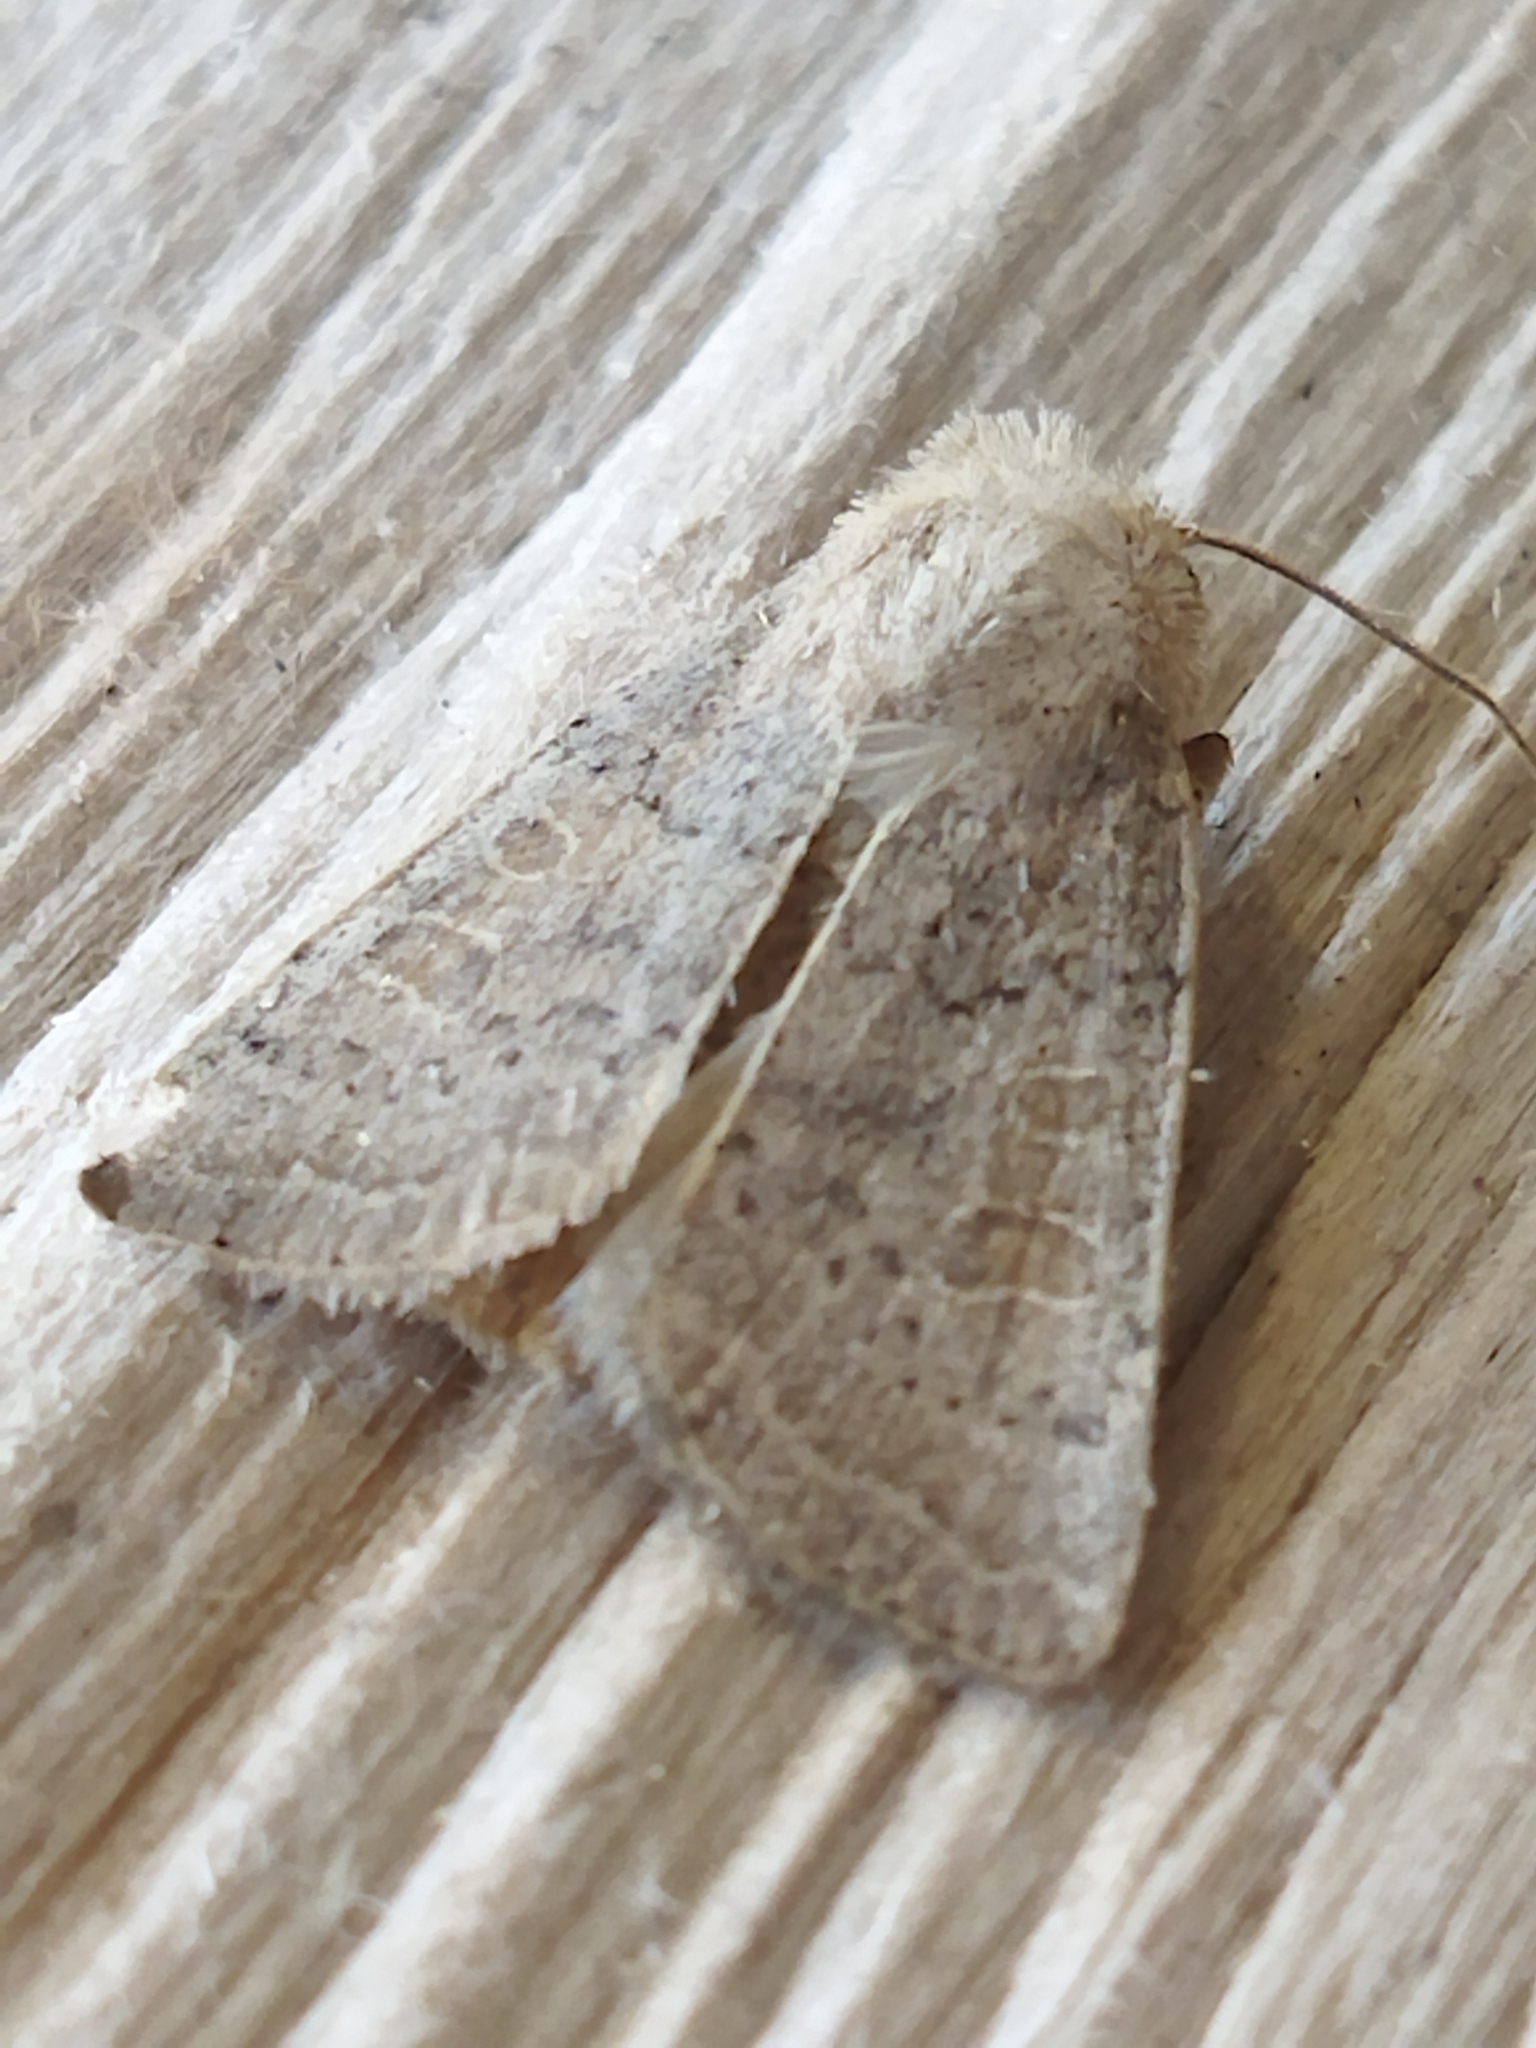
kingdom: Animalia
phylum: Arthropoda
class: Insecta
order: Lepidoptera
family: Noctuidae
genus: Hoplodrina
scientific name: Hoplodrina ambigua
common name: Vine's rustic
